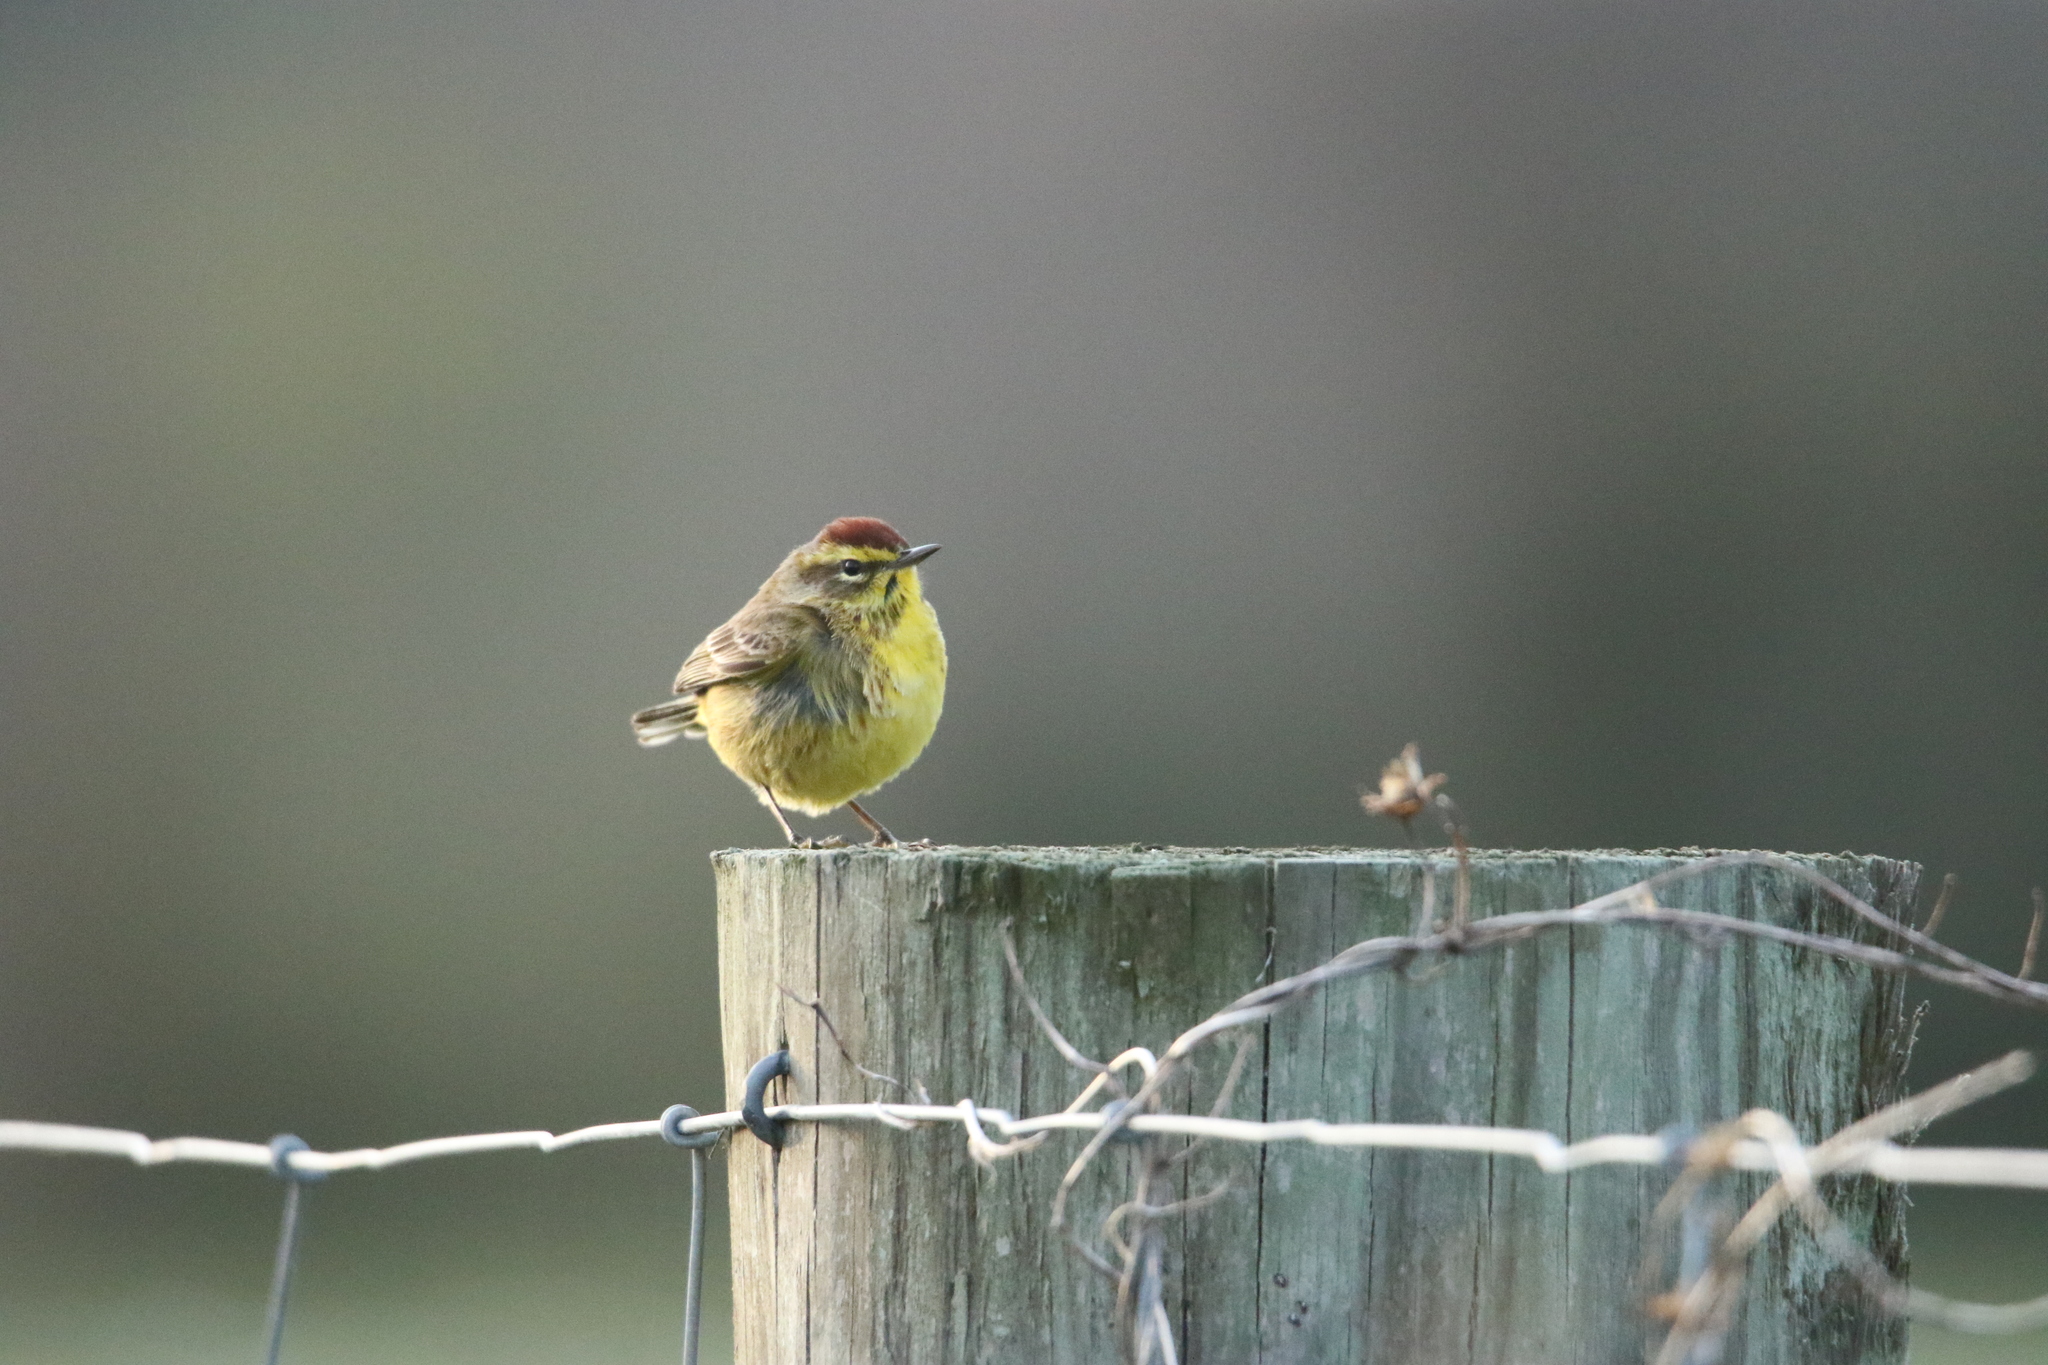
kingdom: Animalia
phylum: Chordata
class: Aves
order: Passeriformes
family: Parulidae
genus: Setophaga
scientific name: Setophaga palmarum
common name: Palm warbler
